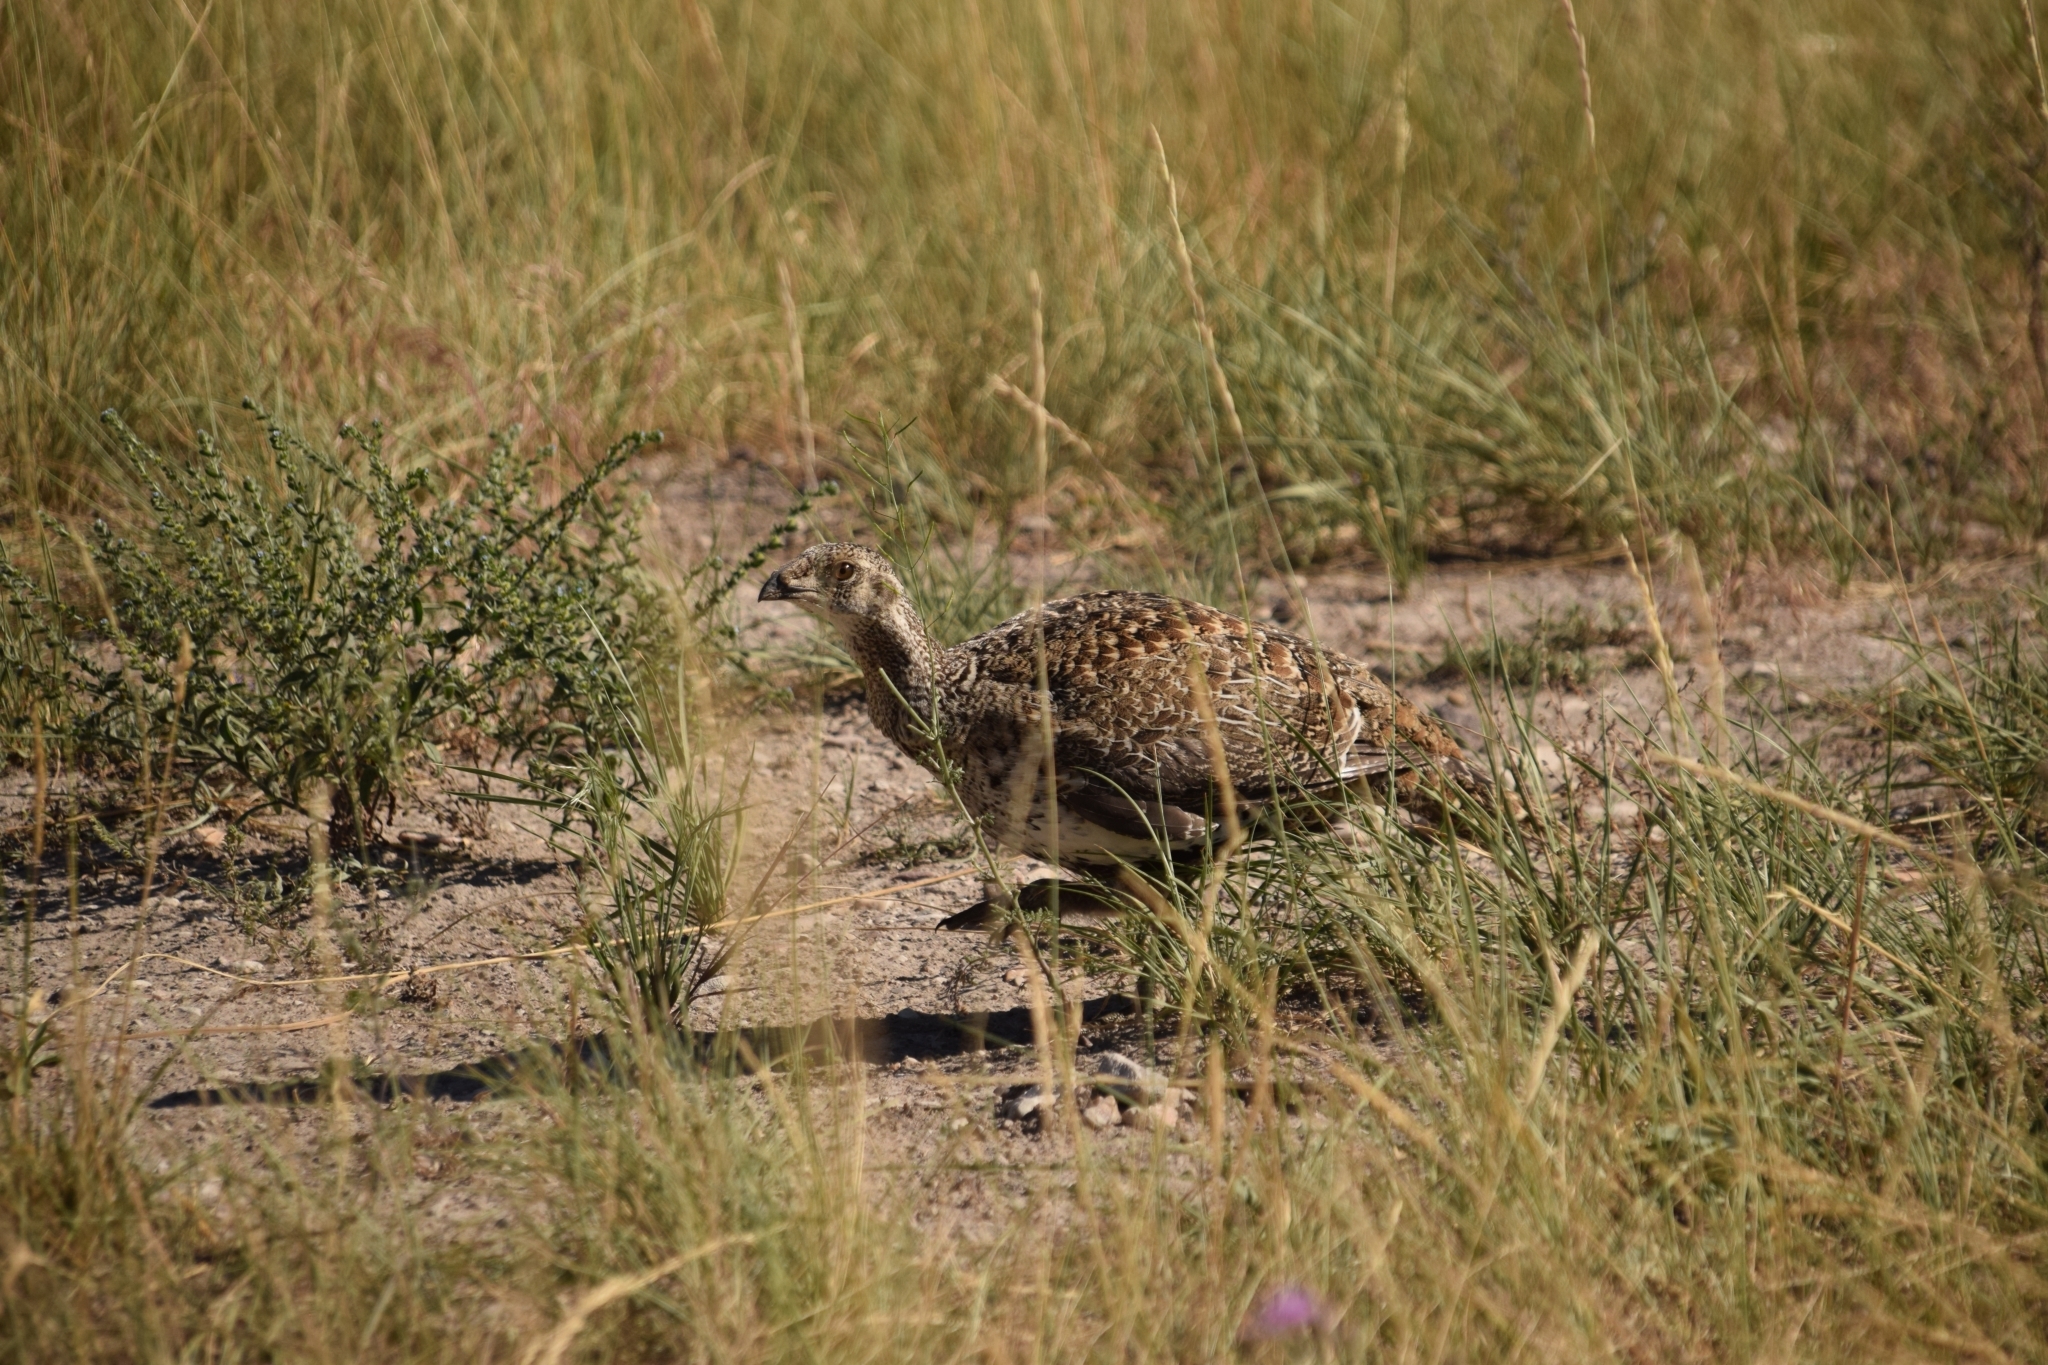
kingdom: Animalia
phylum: Chordata
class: Aves
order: Galliformes
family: Phasianidae
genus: Centrocercus
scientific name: Centrocercus urophasianus
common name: Sage grouse
